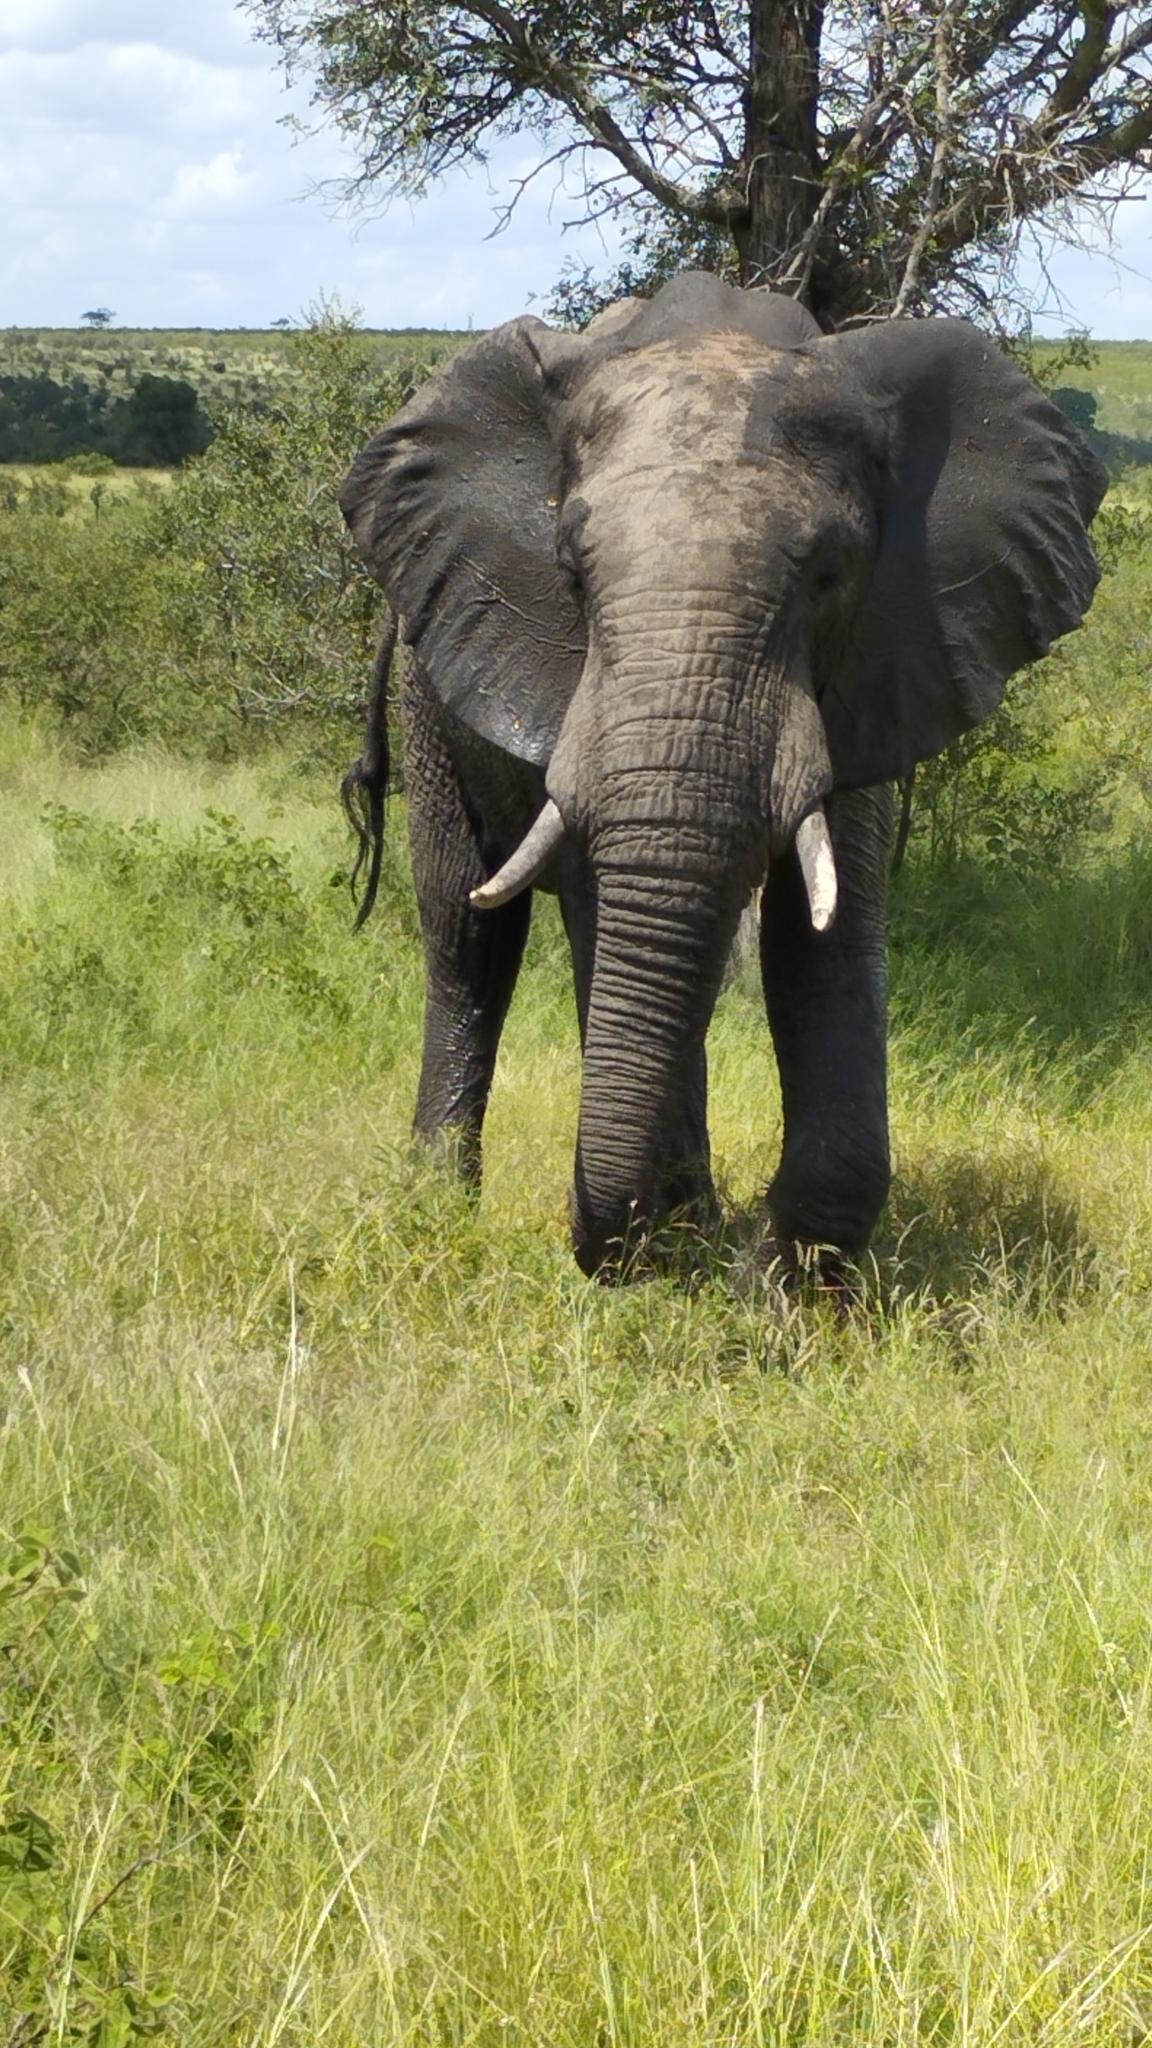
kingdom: Animalia
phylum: Chordata
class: Mammalia
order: Proboscidea
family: Elephantidae
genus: Loxodonta
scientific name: Loxodonta africana
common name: African elephant
